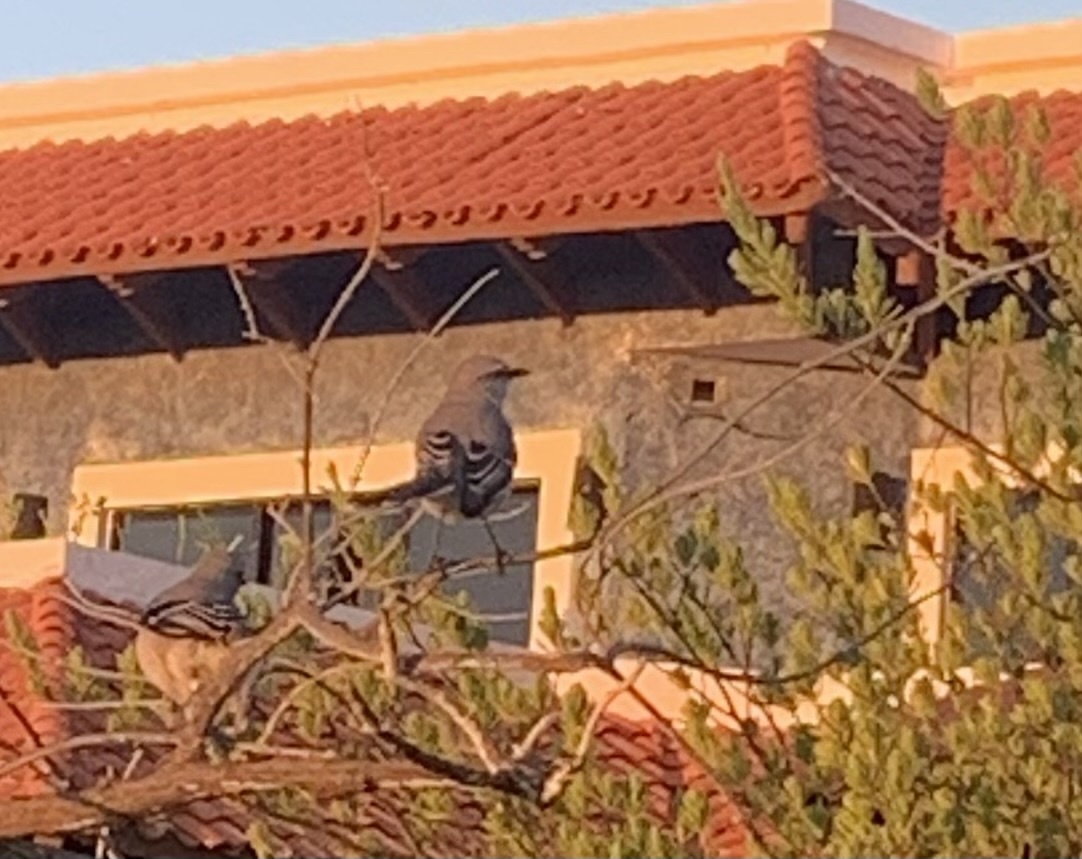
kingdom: Animalia
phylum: Chordata
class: Aves
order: Passeriformes
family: Mimidae
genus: Mimus
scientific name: Mimus gilvus
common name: Tropical mockingbird
